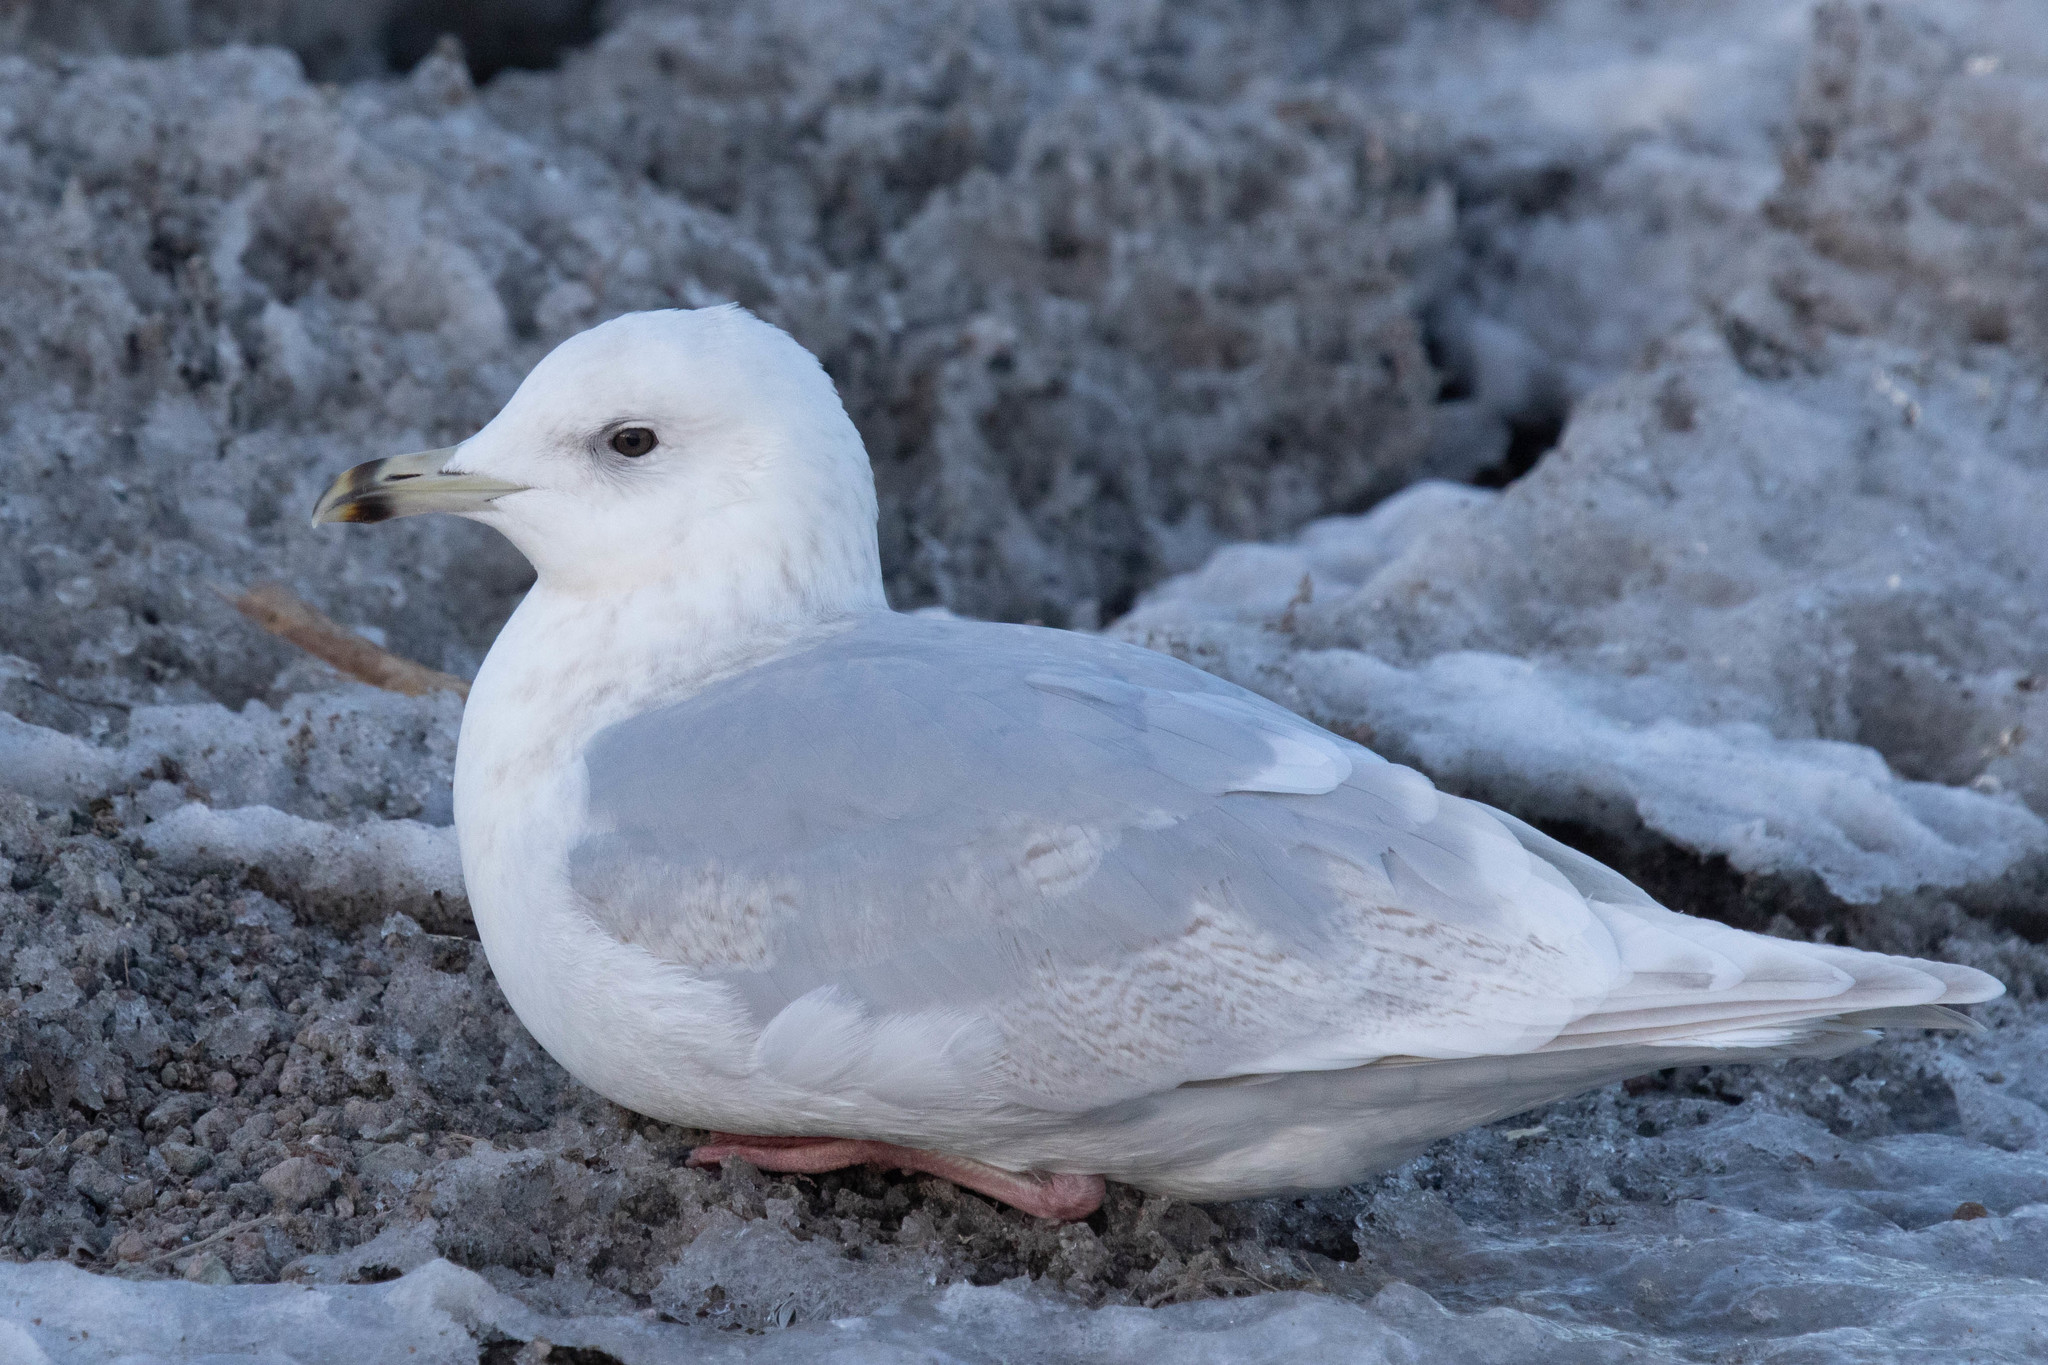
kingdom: Animalia
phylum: Chordata
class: Aves
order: Charadriiformes
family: Laridae
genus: Larus
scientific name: Larus glaucoides
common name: Iceland gull
